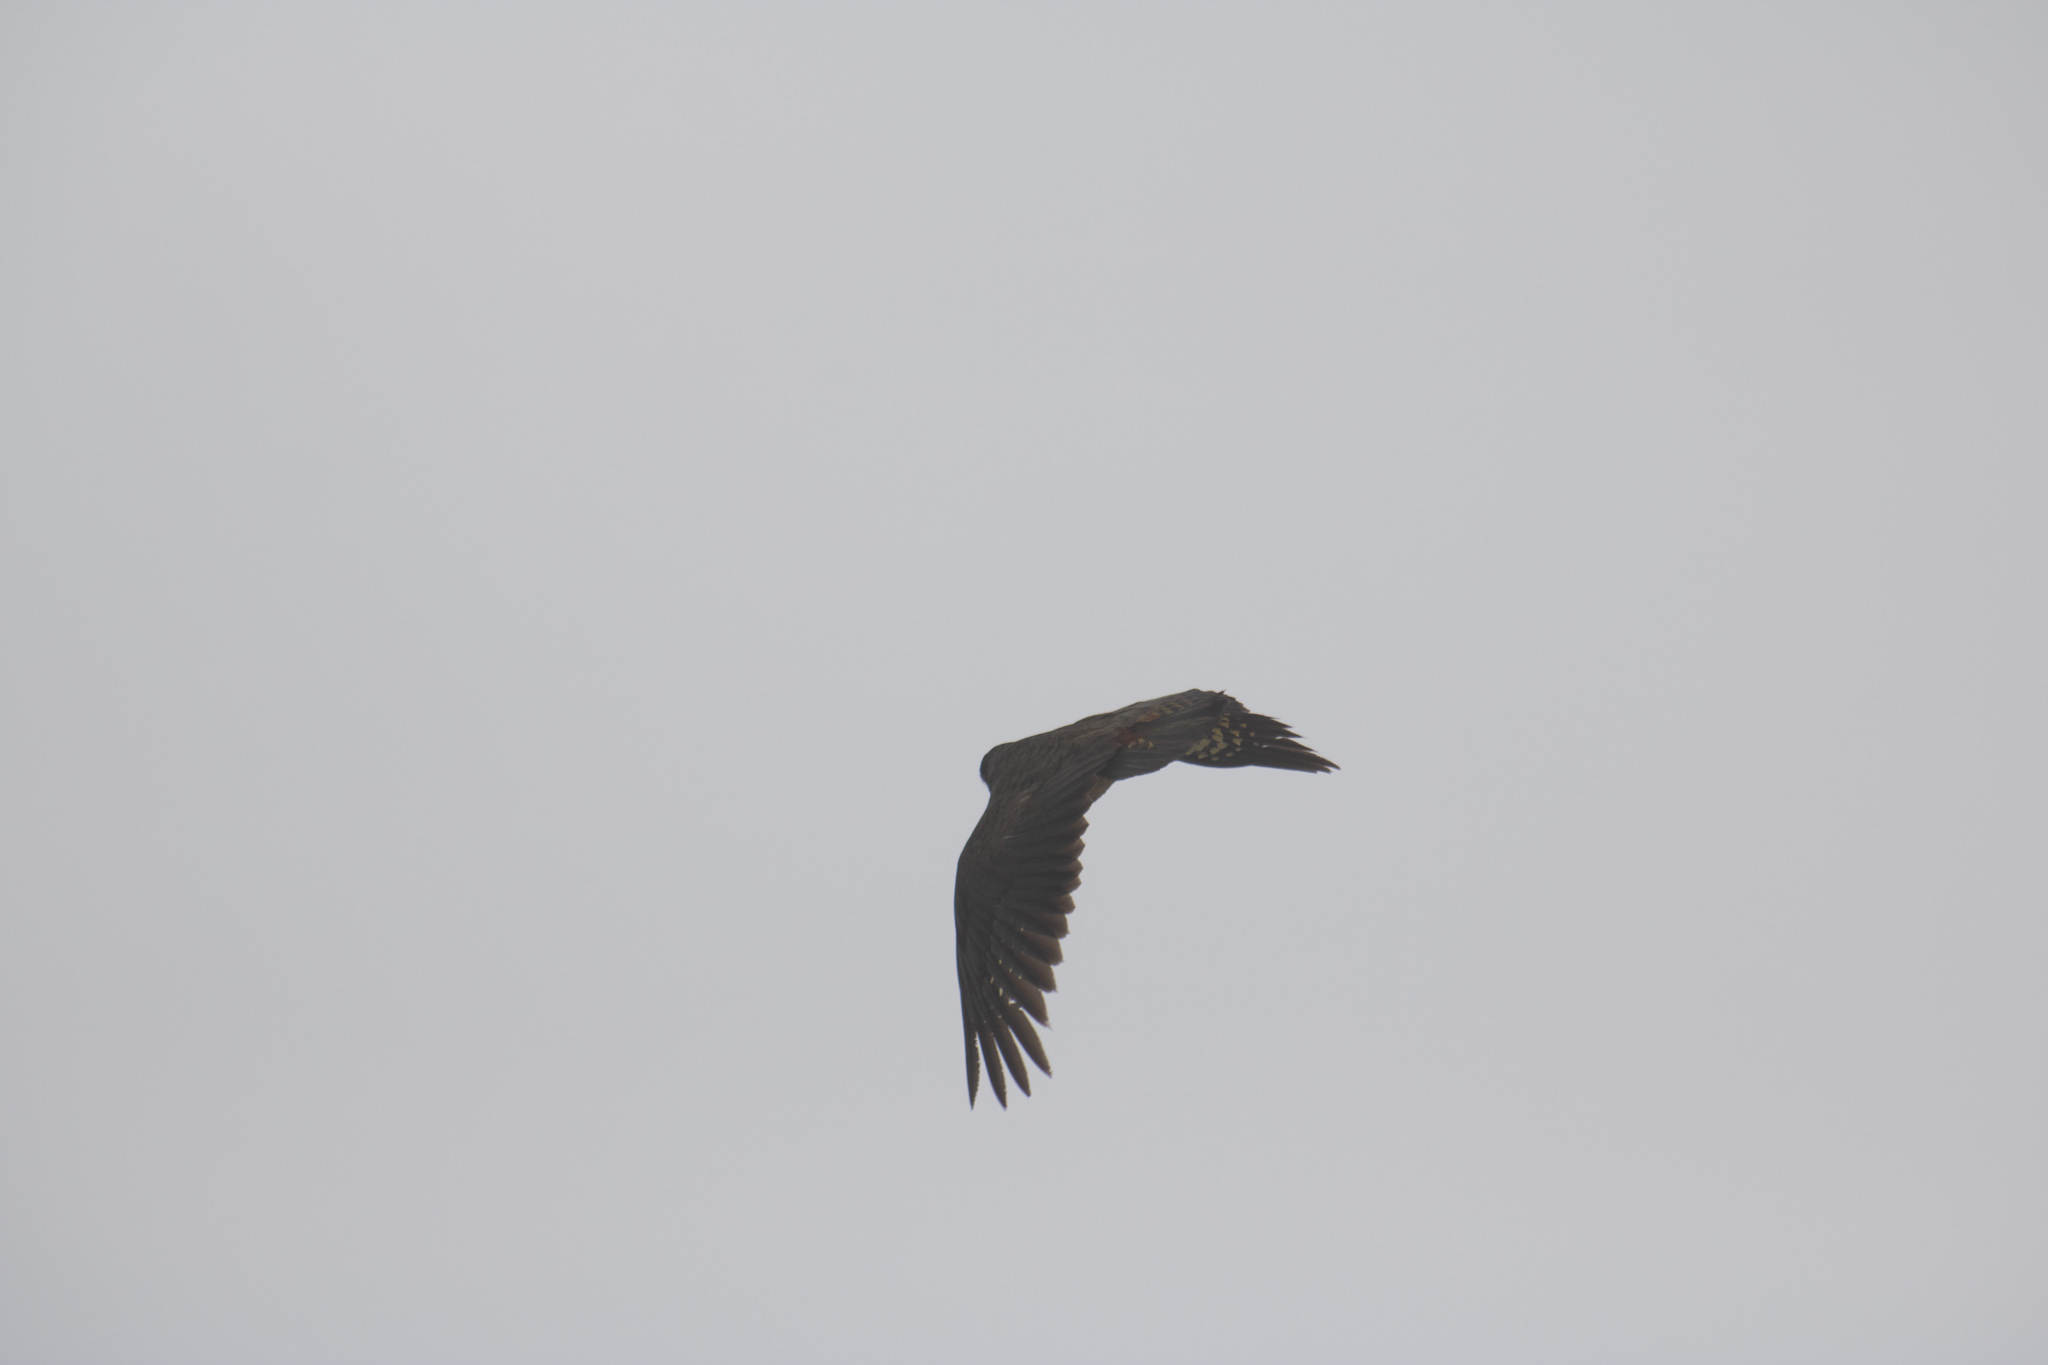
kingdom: Animalia
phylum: Chordata
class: Aves
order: Psittaciformes
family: Psittacidae
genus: Nestor
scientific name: Nestor notabilis
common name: Kea
